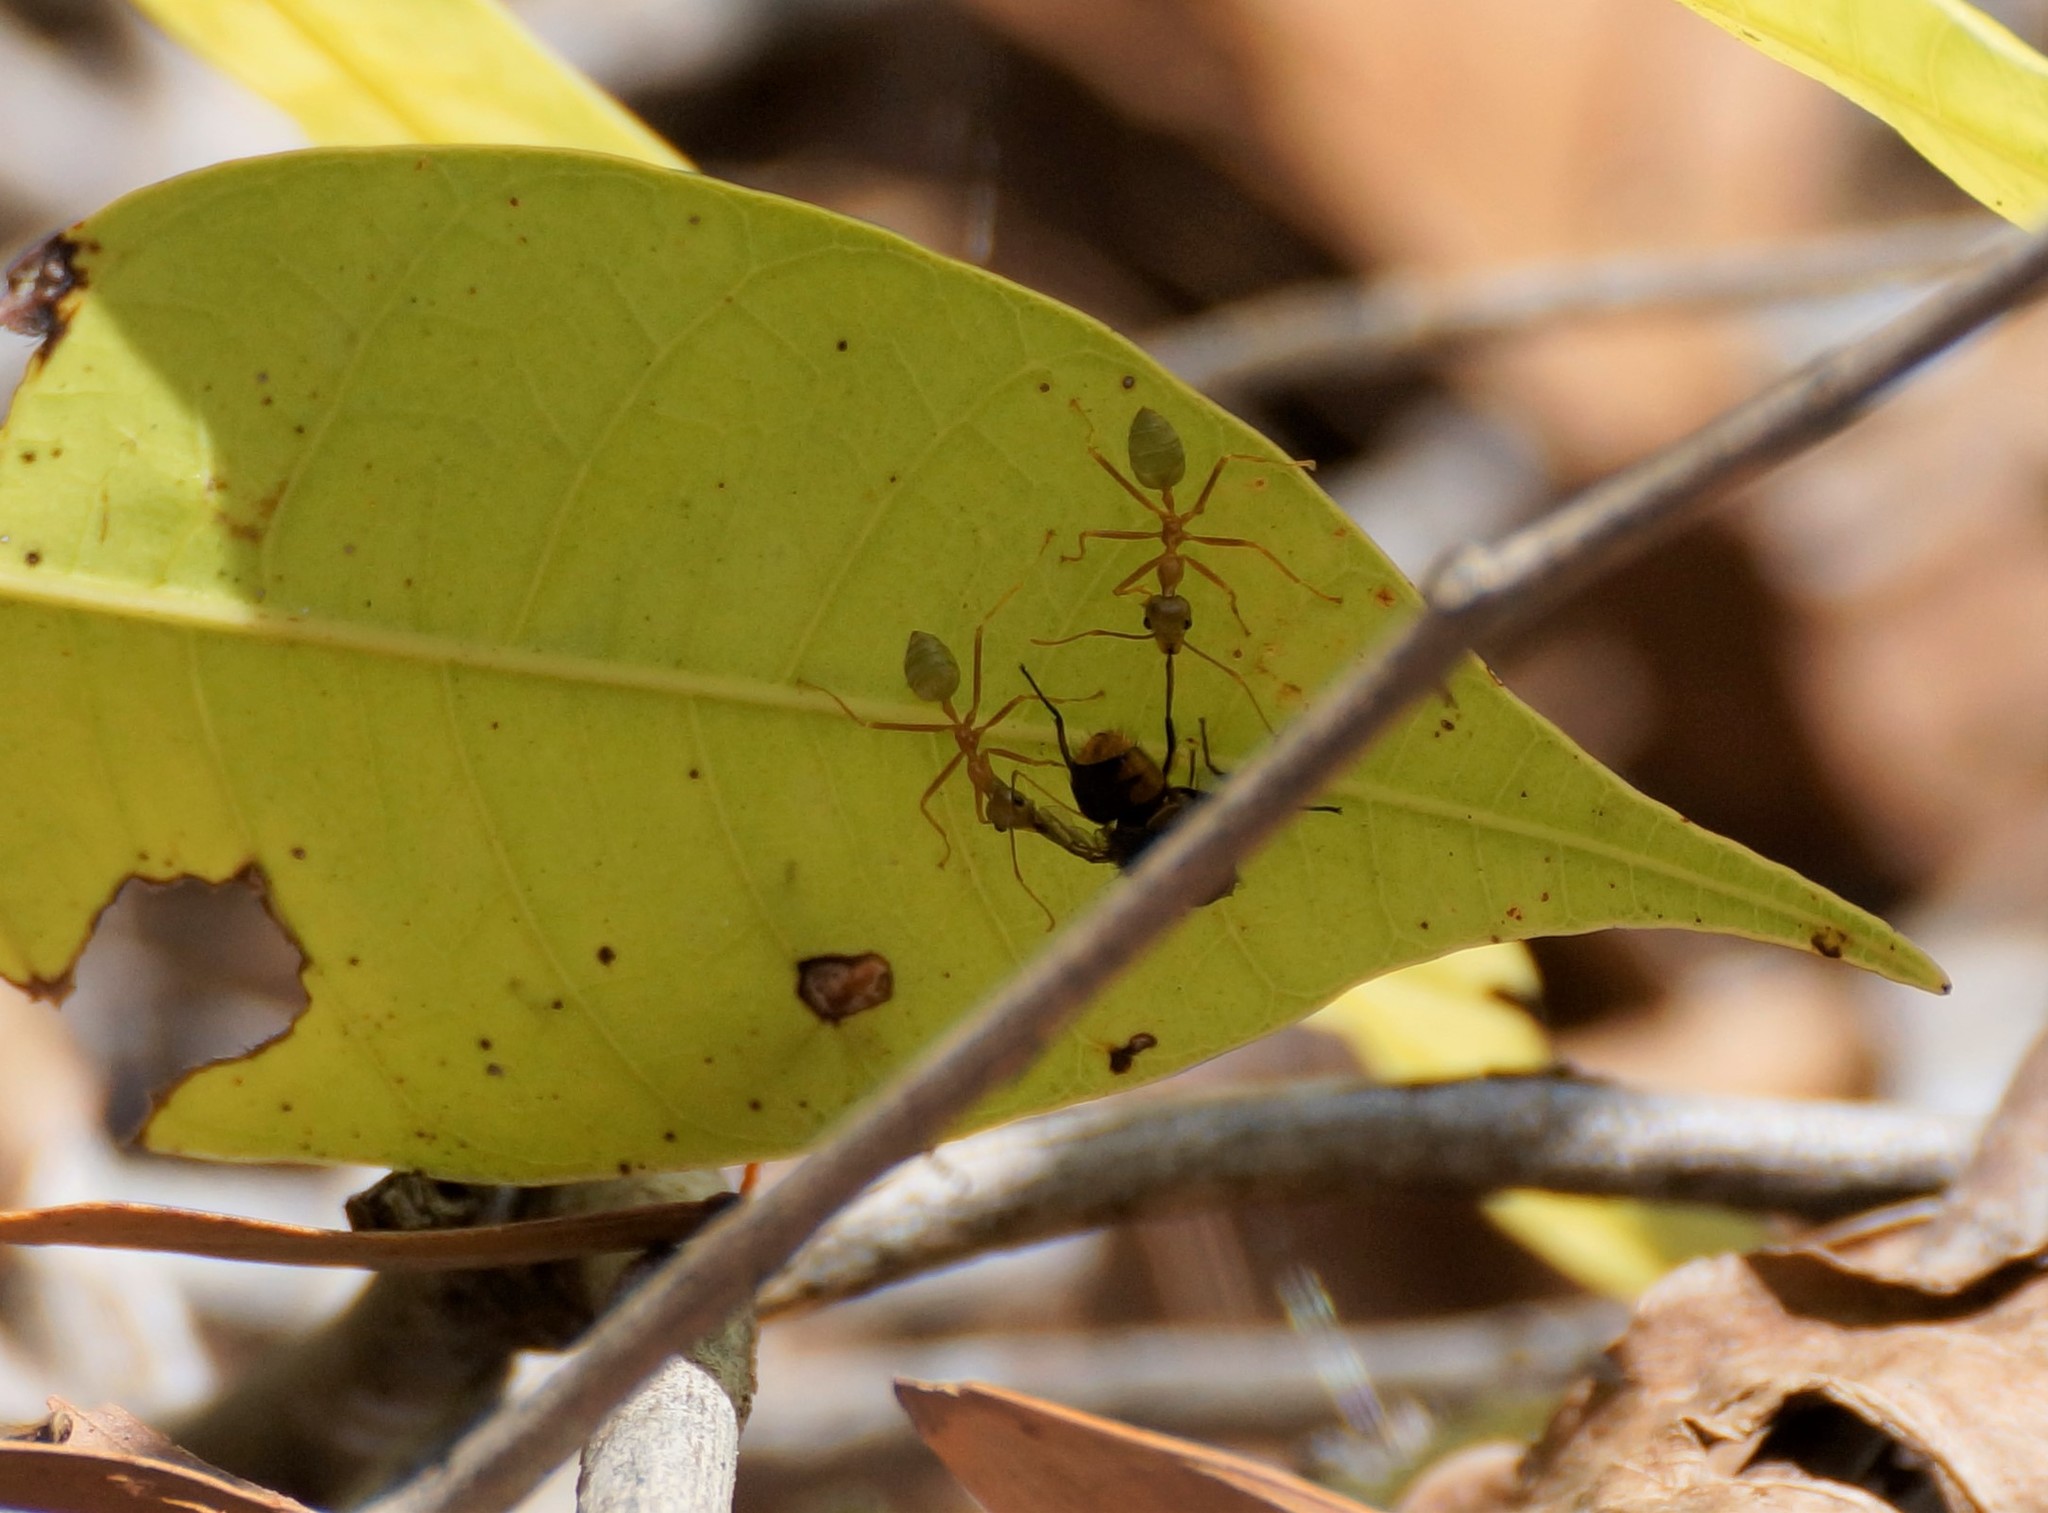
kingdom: Animalia
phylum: Arthropoda
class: Insecta
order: Hymenoptera
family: Formicidae
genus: Oecophylla
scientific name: Oecophylla smaragdina
